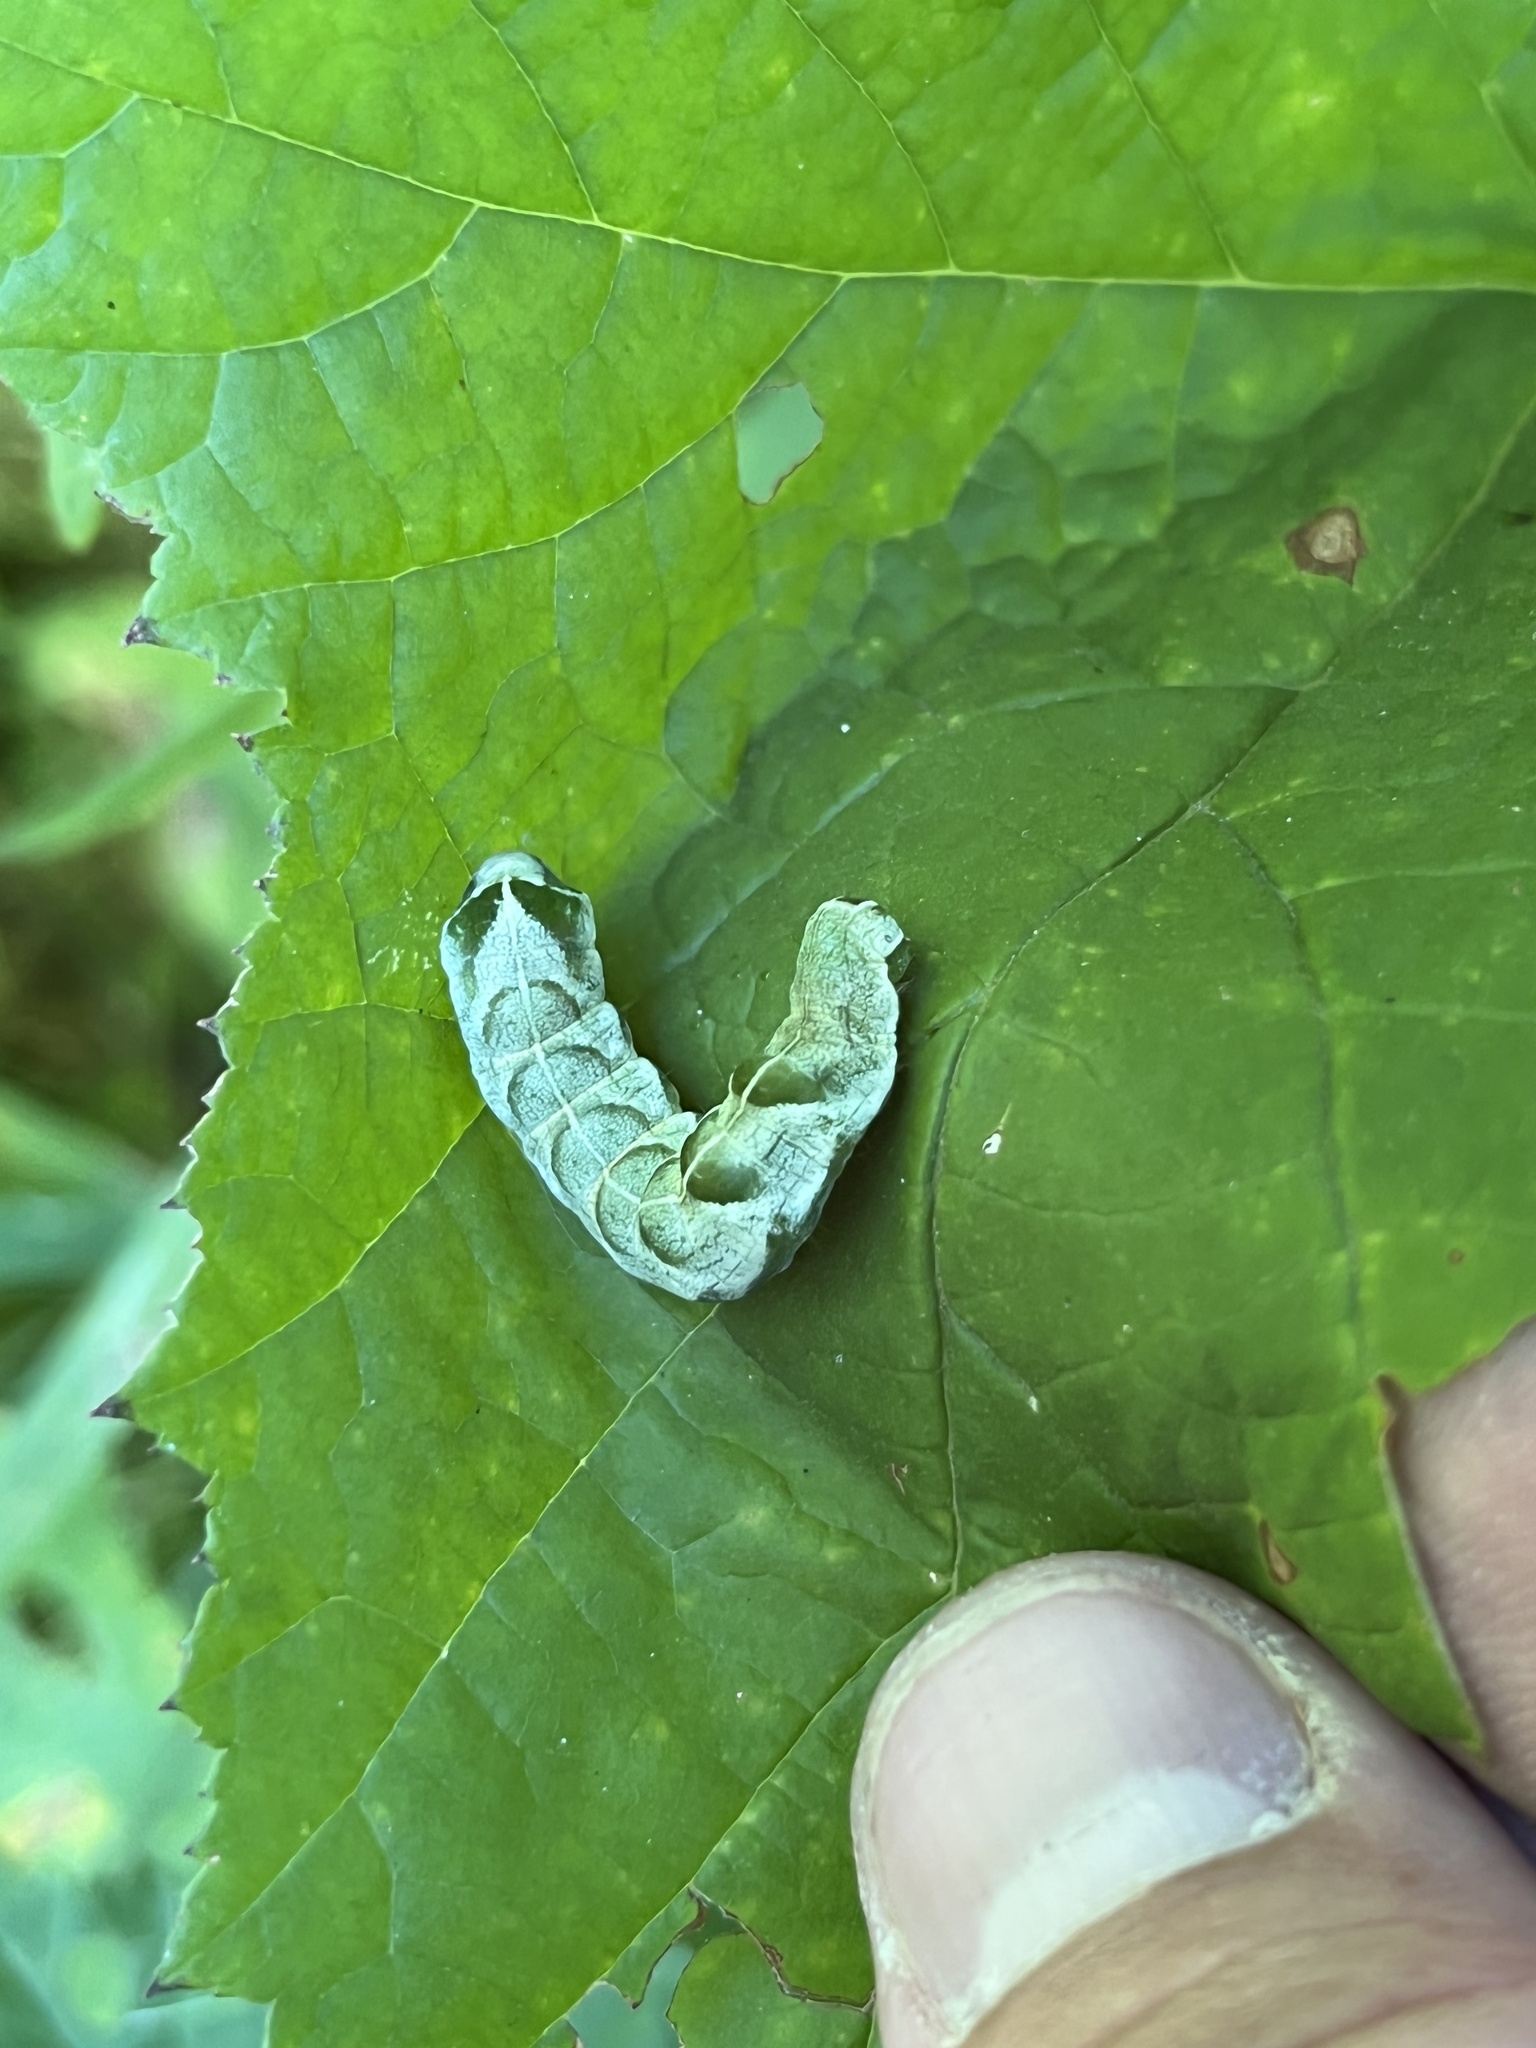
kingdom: Animalia
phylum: Arthropoda
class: Insecta
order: Lepidoptera
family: Noctuidae
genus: Melanchra
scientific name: Melanchra adjuncta
